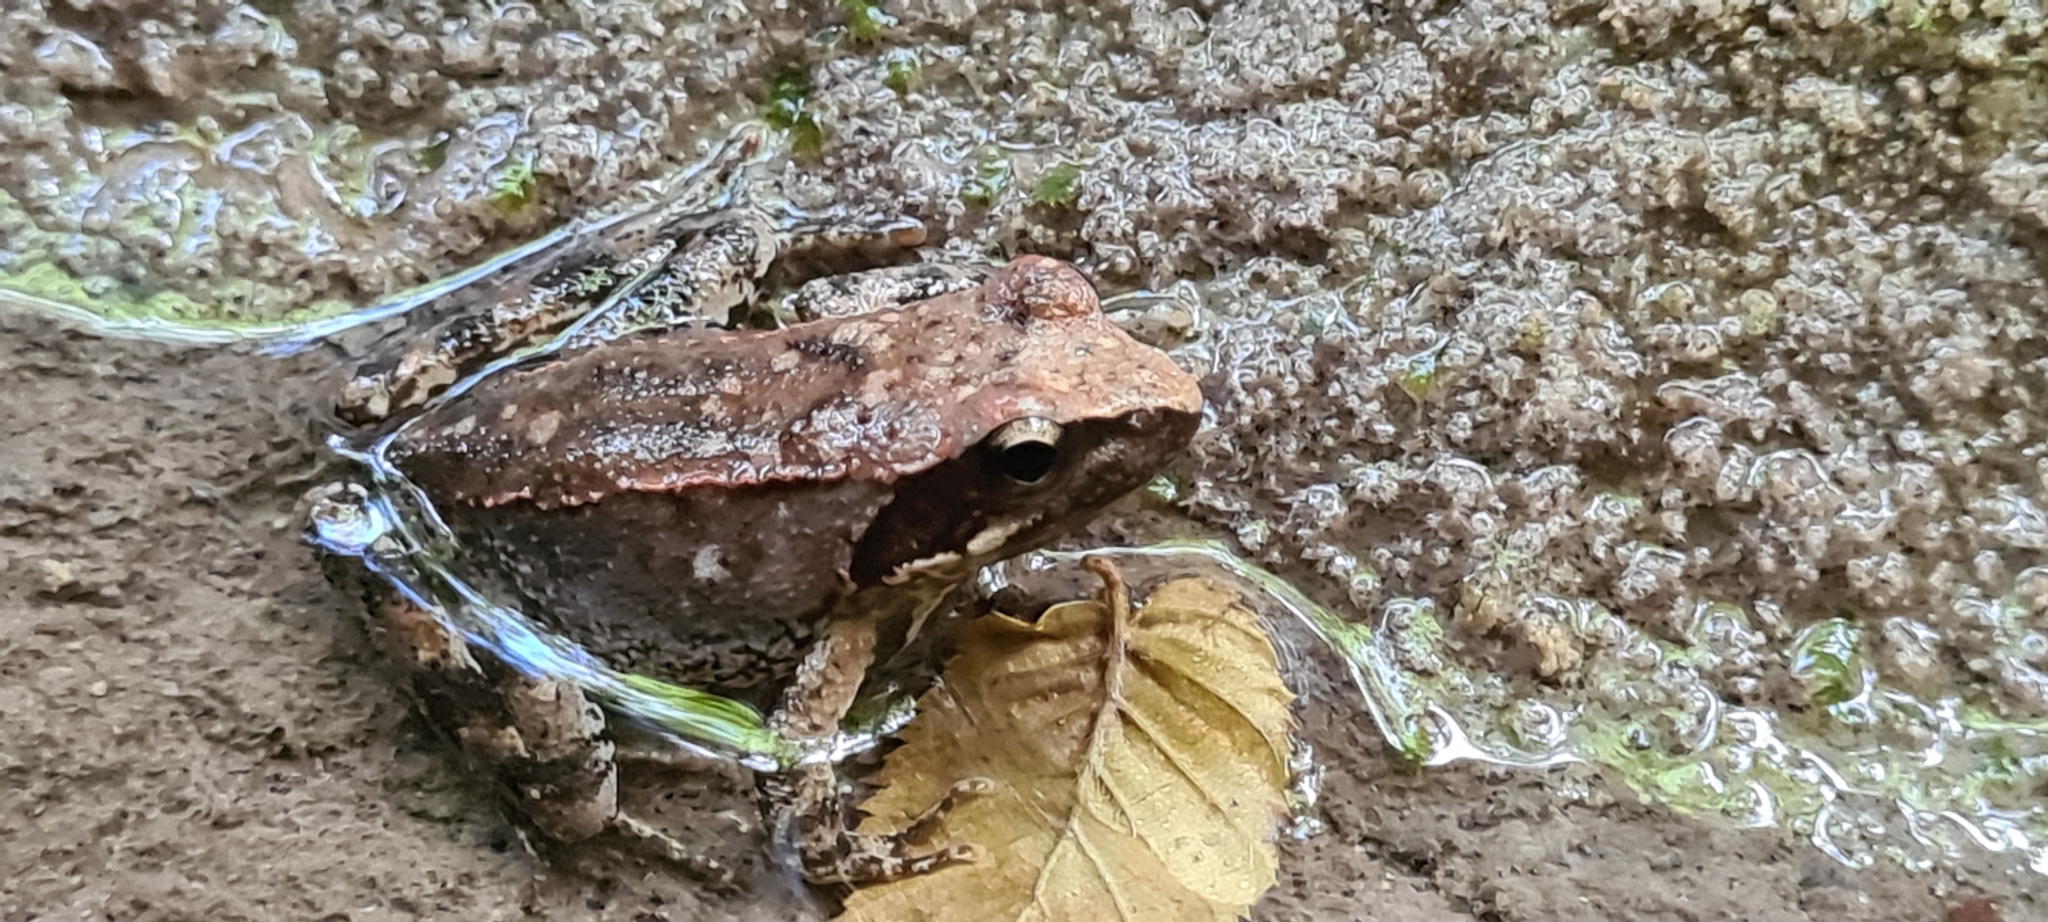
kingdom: Animalia
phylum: Chordata
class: Amphibia
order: Anura
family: Ranidae
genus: Rana
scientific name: Rana italica
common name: Italian stream frog
